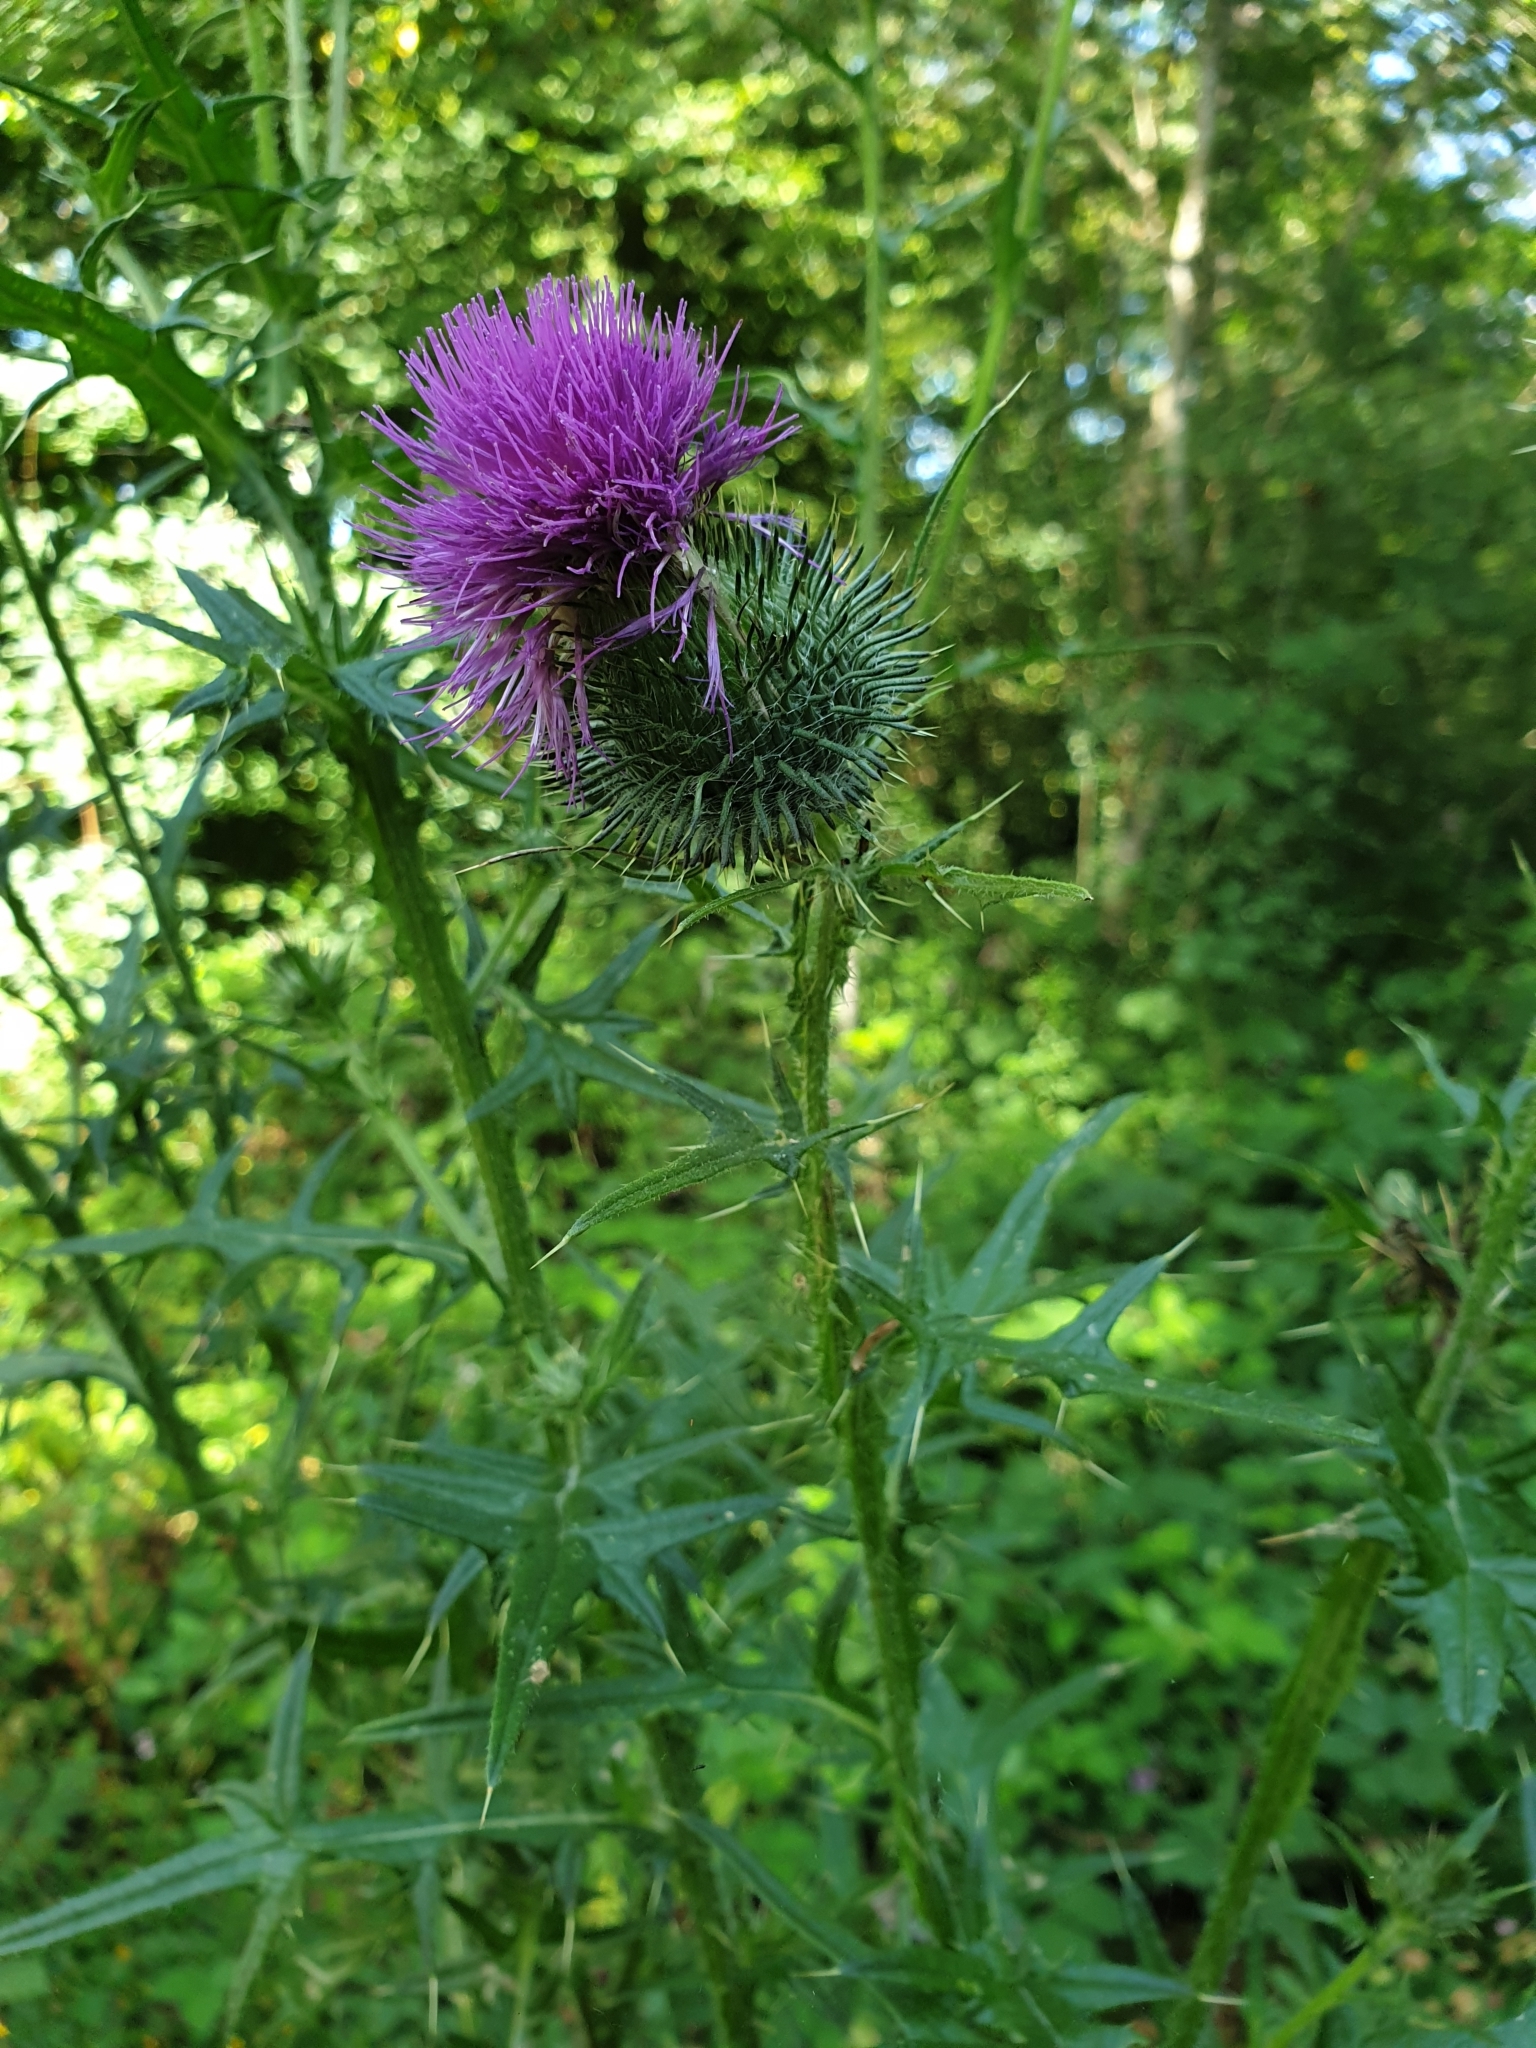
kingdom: Plantae
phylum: Tracheophyta
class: Magnoliopsida
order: Asterales
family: Asteraceae
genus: Cirsium
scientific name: Cirsium vulgare
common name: Bull thistle
